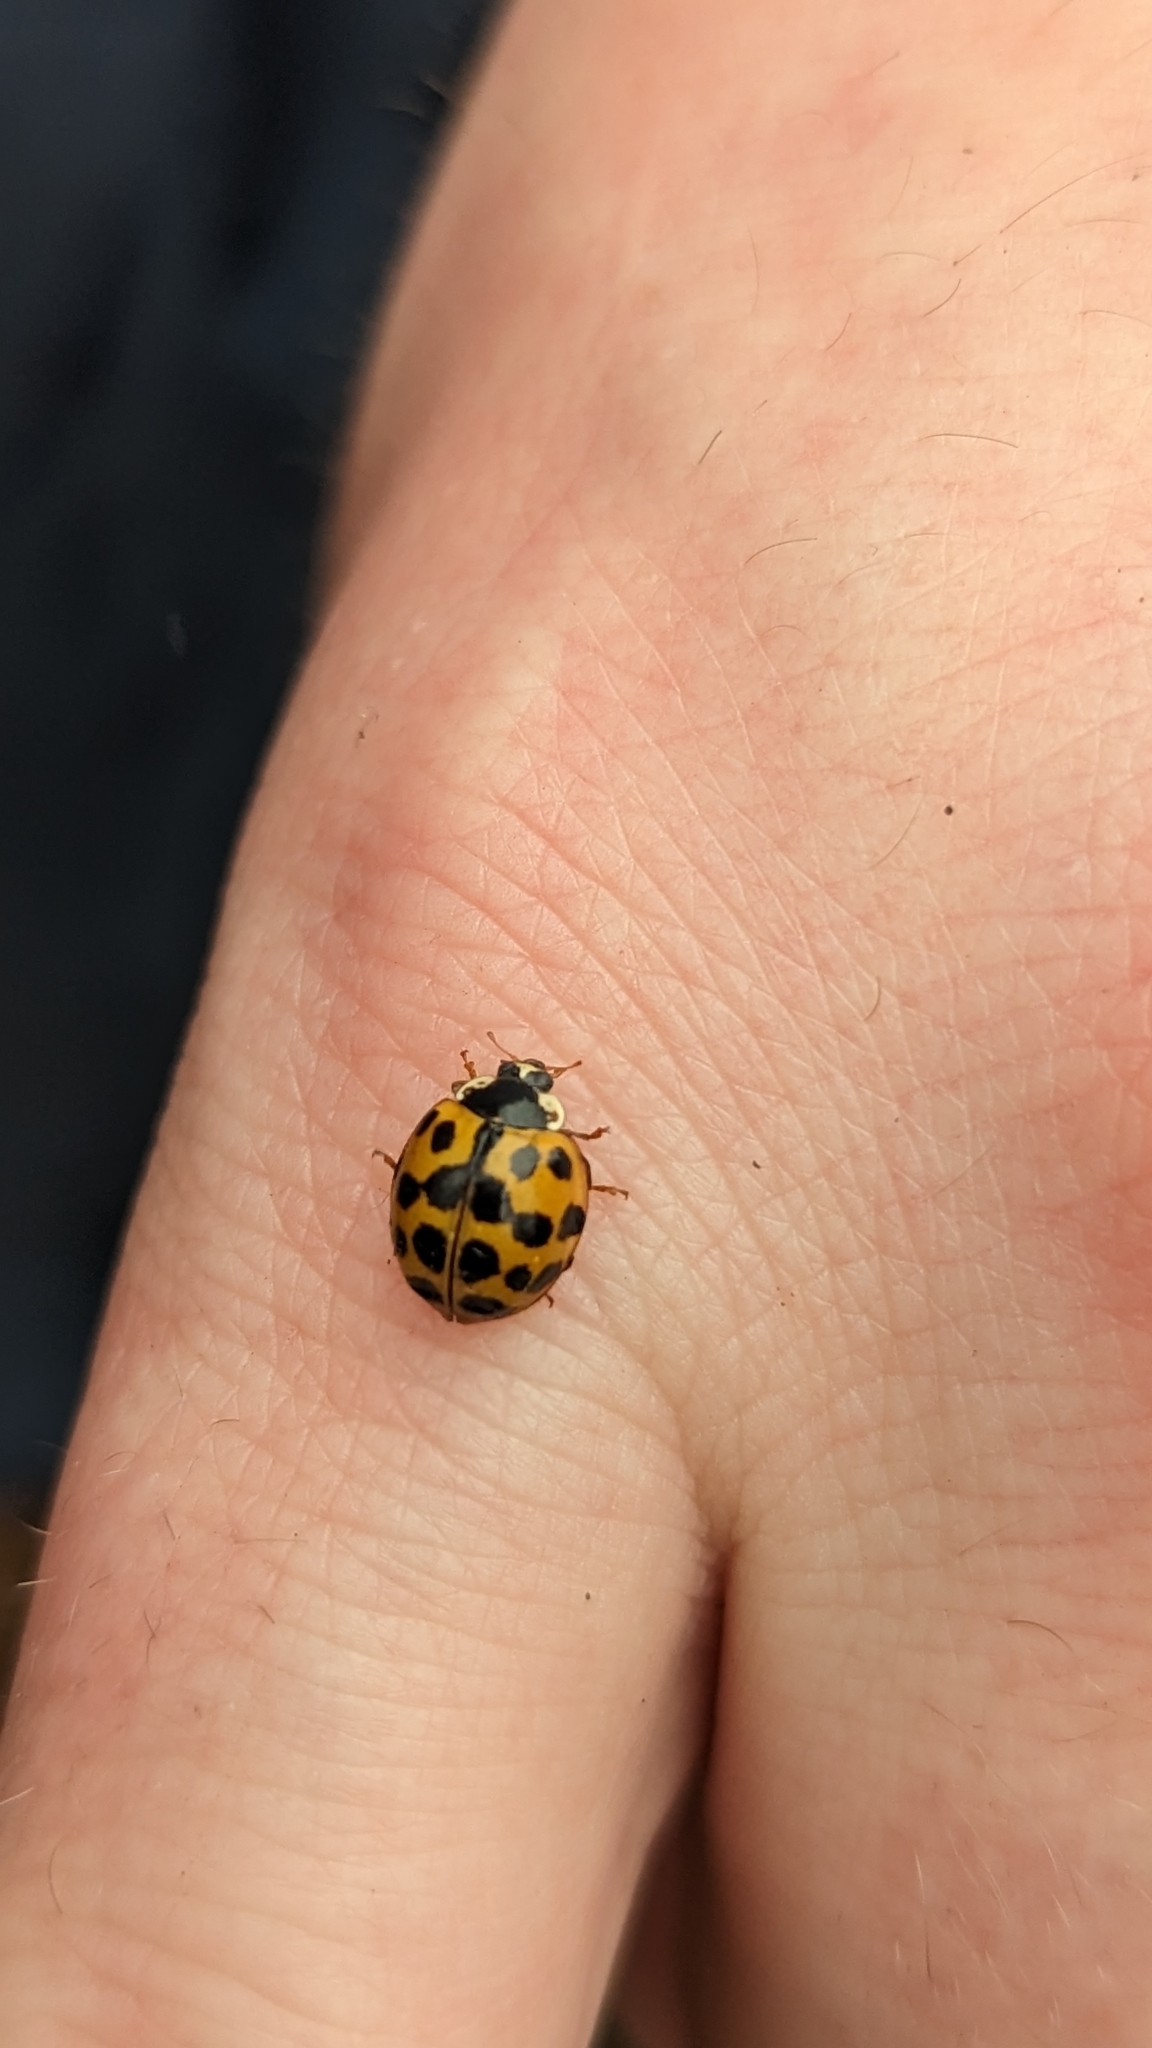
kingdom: Animalia
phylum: Arthropoda
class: Insecta
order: Coleoptera
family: Coccinellidae
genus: Harmonia
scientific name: Harmonia axyridis
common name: Harlequin ladybird
